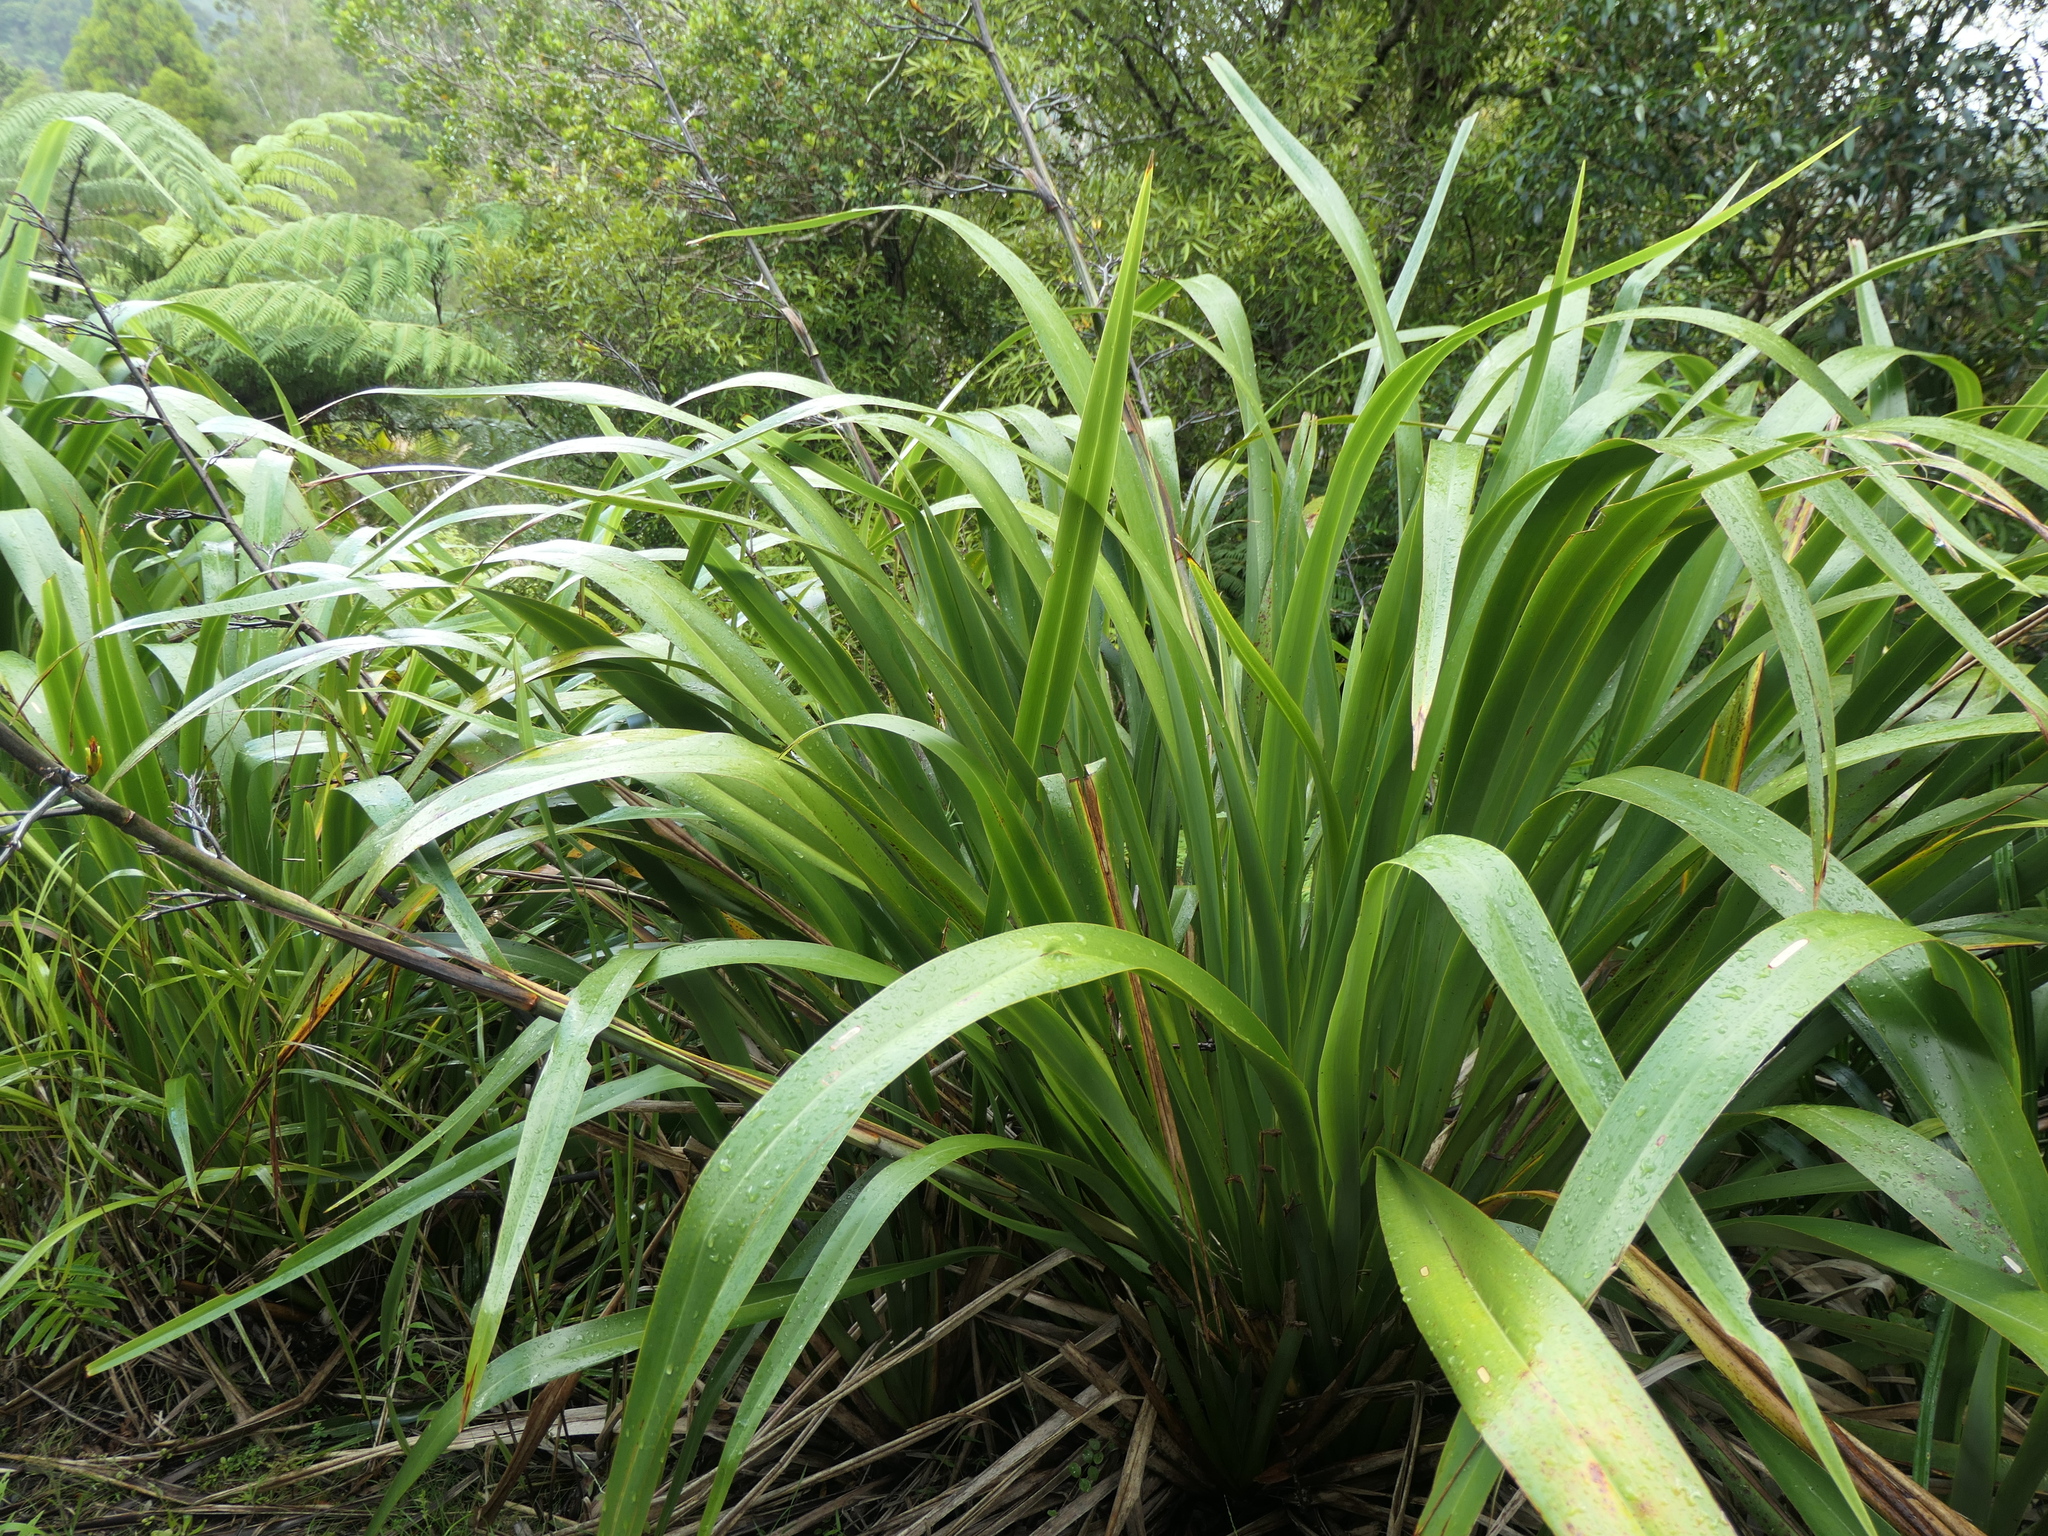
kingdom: Plantae
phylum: Tracheophyta
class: Liliopsida
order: Asparagales
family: Asphodelaceae
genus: Phormium
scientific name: Phormium colensoi
